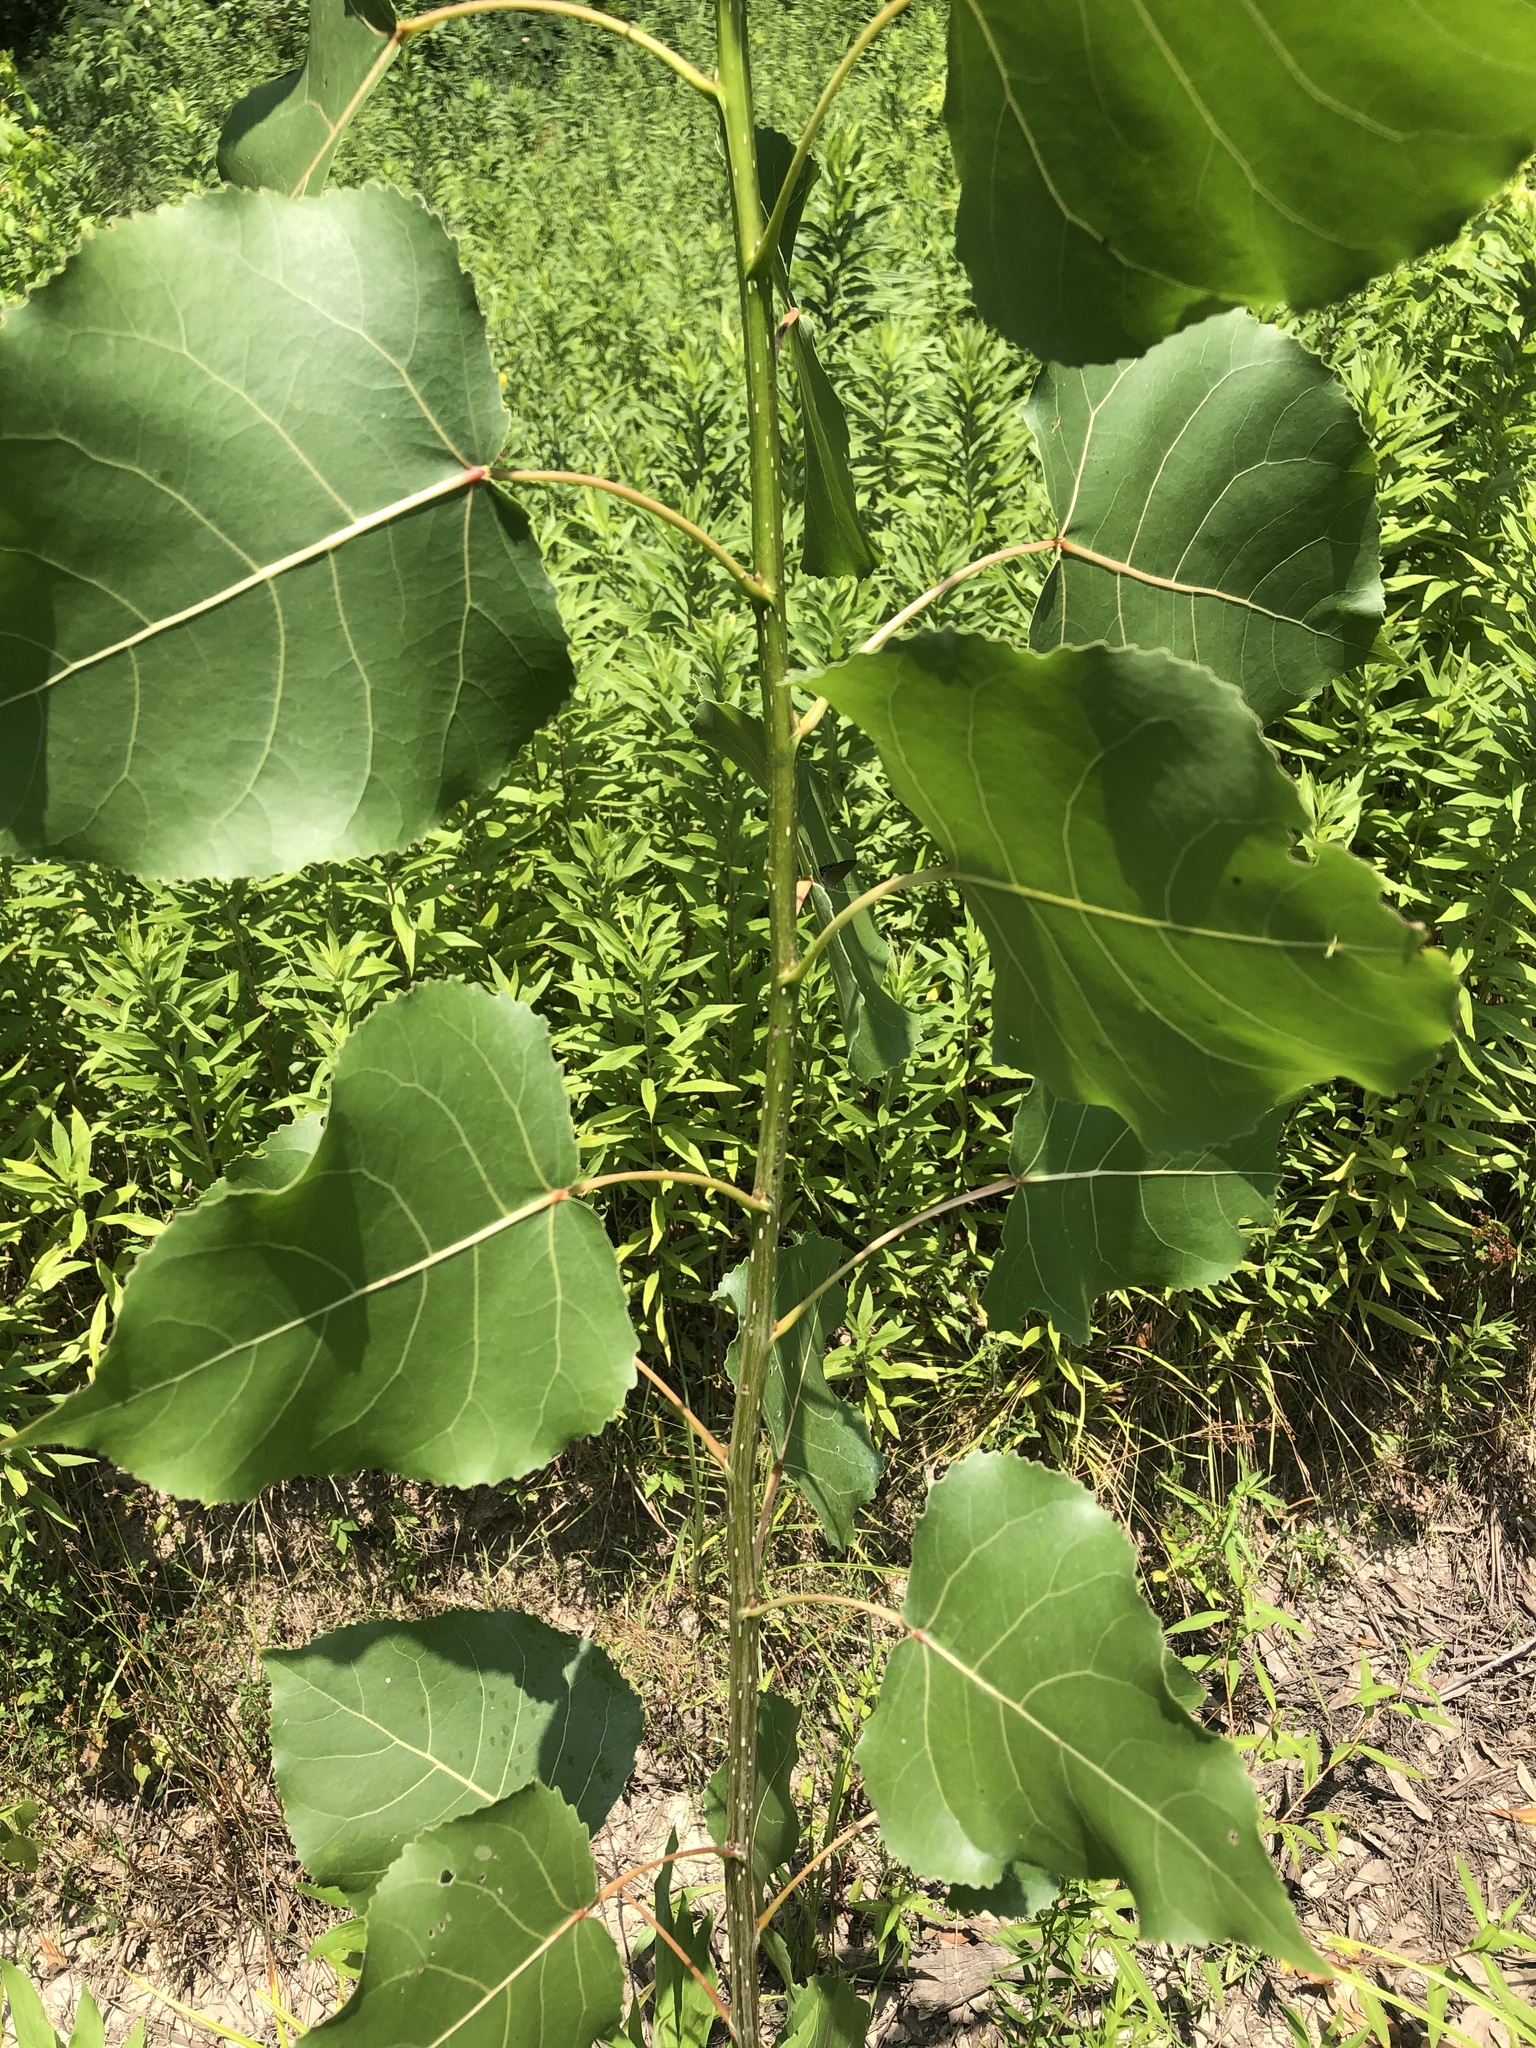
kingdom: Plantae
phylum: Tracheophyta
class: Magnoliopsida
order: Malpighiales
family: Salicaceae
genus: Populus
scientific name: Populus deltoides
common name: Eastern cottonwood
